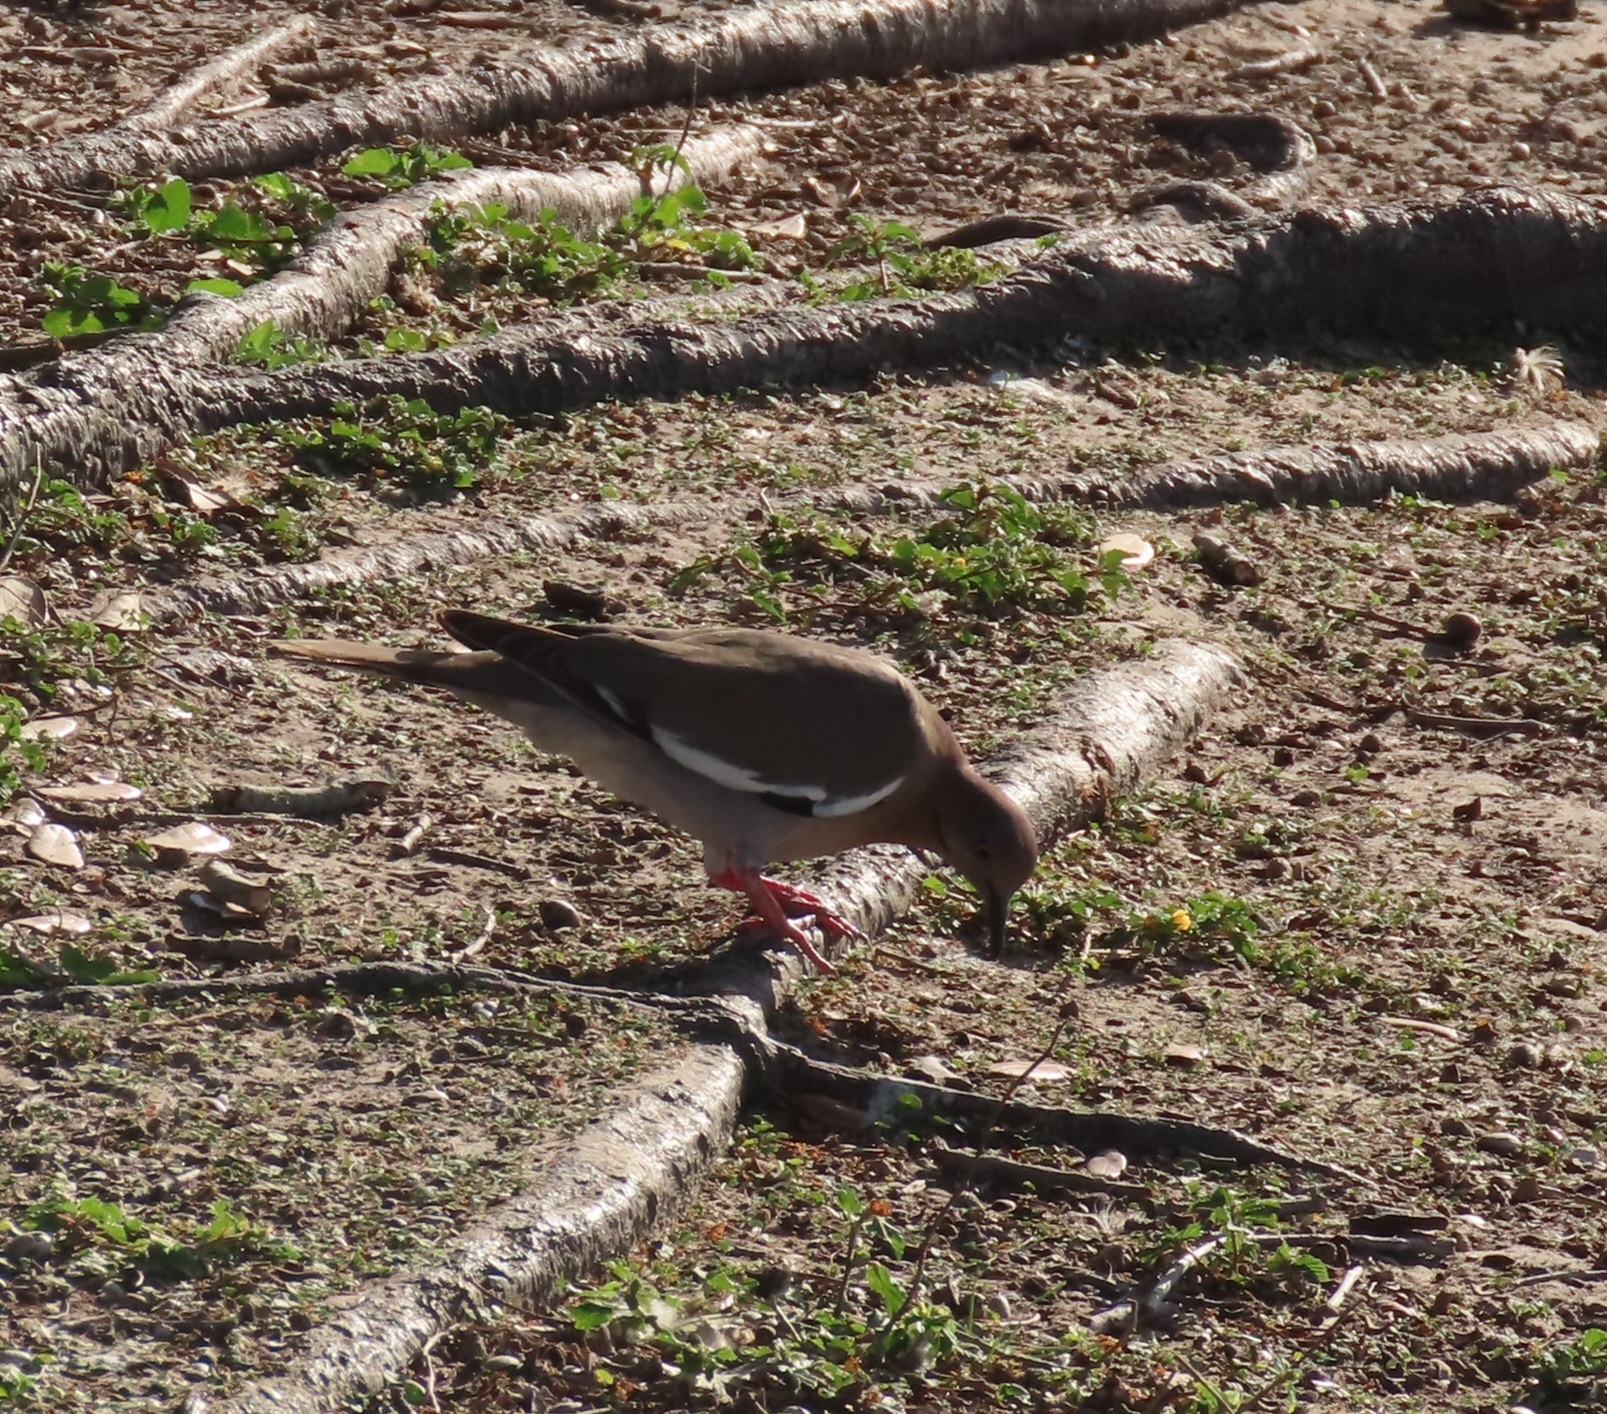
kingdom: Animalia
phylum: Chordata
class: Aves
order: Columbiformes
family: Columbidae
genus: Zenaida
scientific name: Zenaida asiatica
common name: White-winged dove
